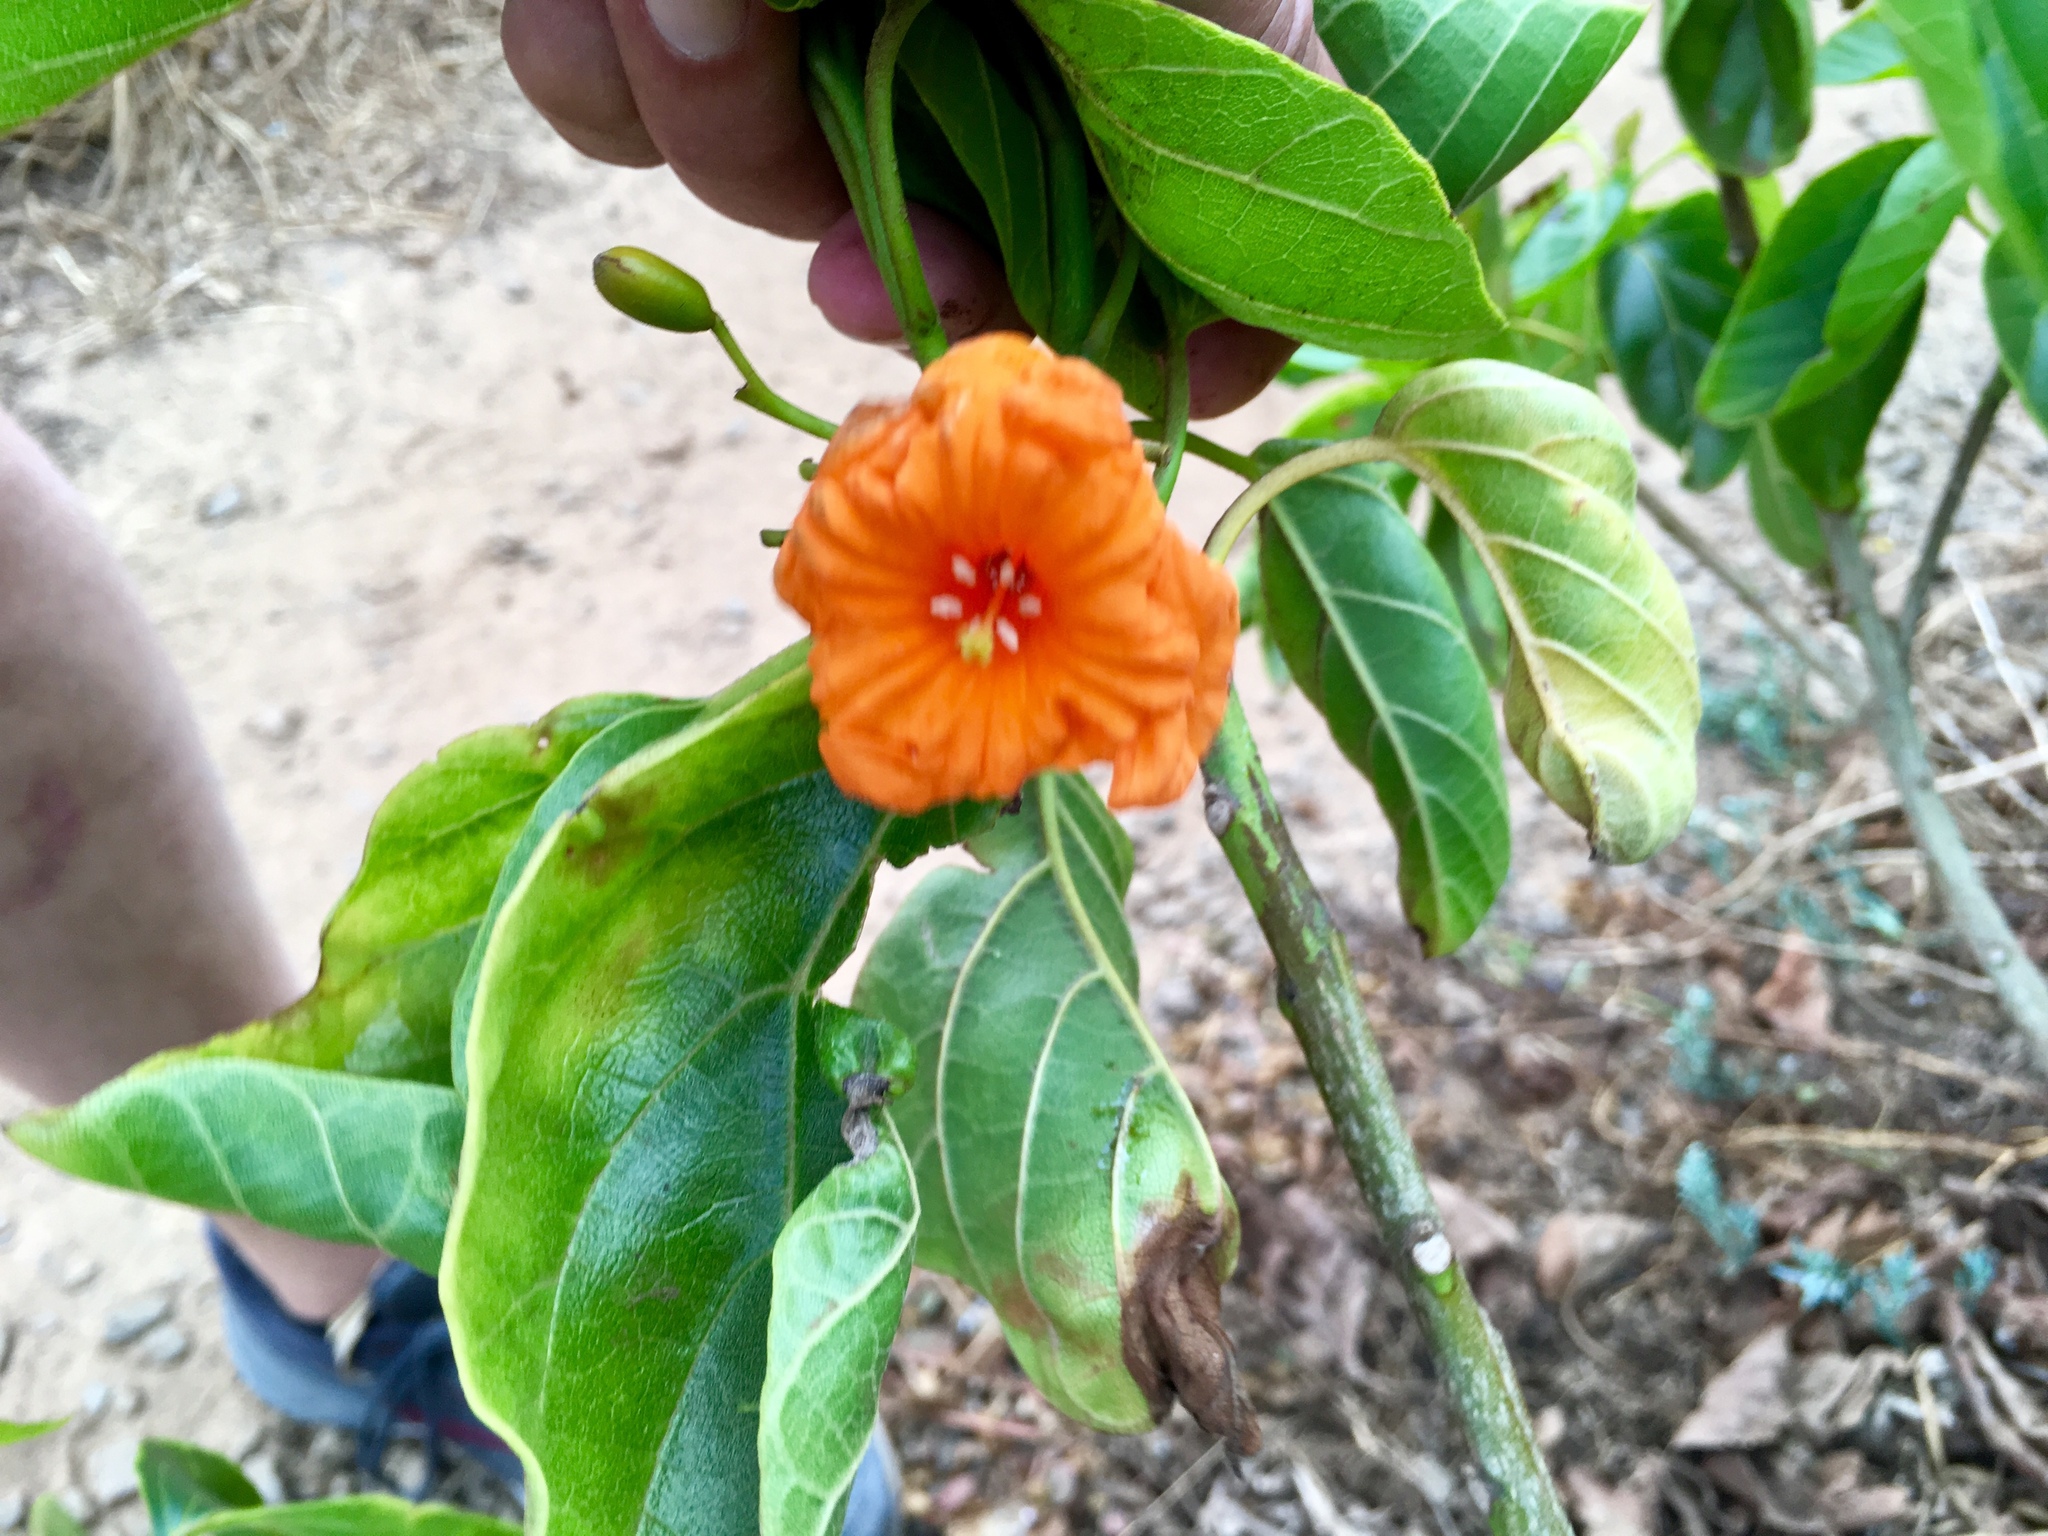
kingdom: Plantae
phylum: Tracheophyta
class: Magnoliopsida
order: Boraginales
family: Cordiaceae
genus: Cordia
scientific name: Cordia subcordata
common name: Mareer
